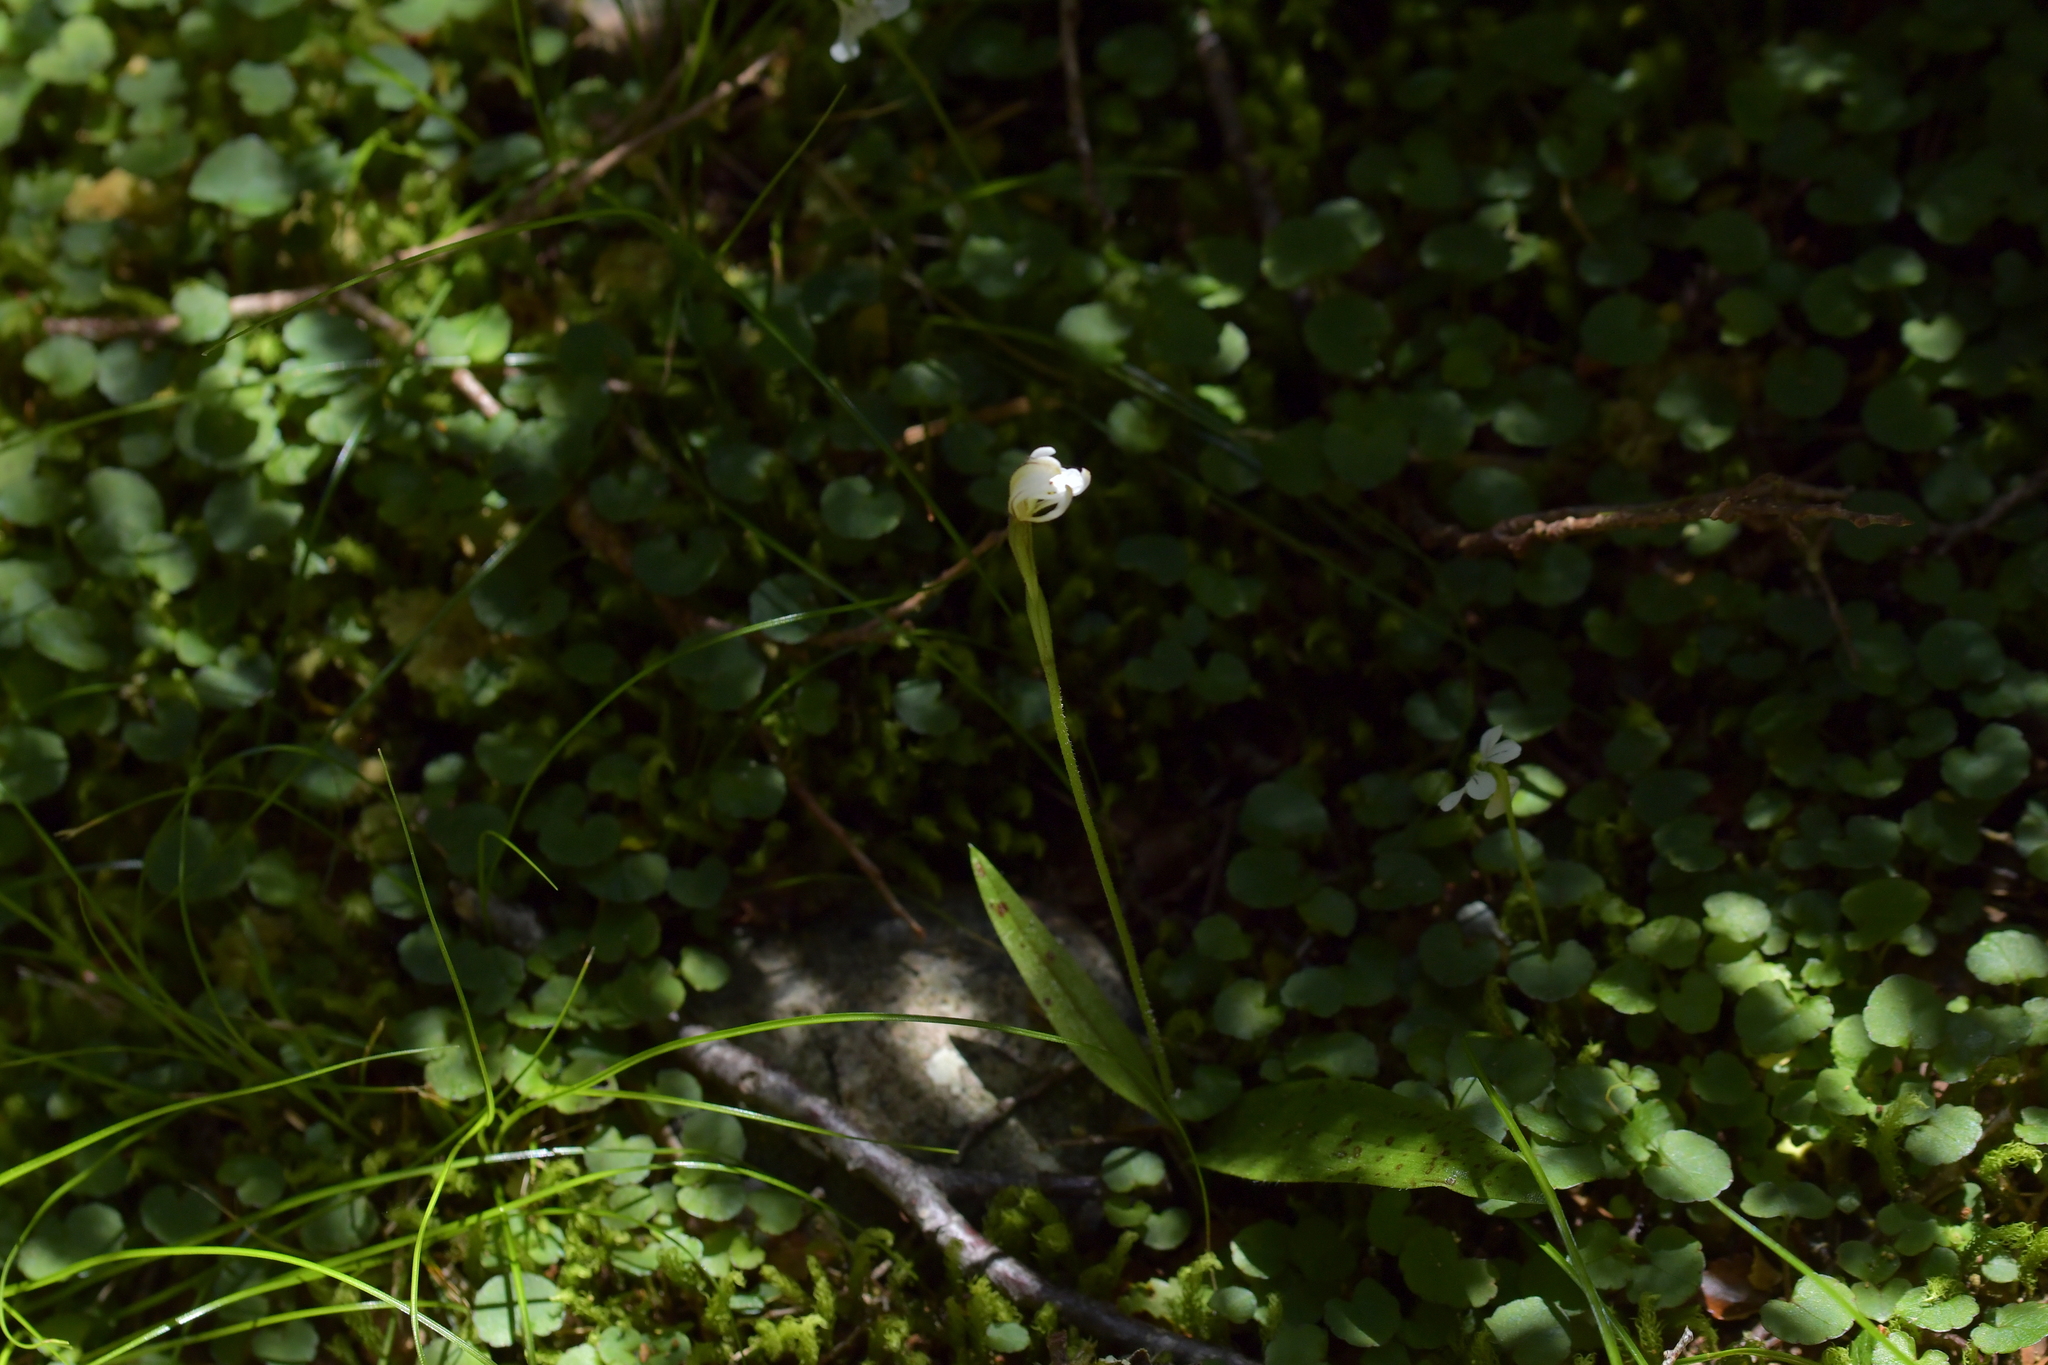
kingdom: Plantae
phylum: Tracheophyta
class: Liliopsida
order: Asparagales
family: Orchidaceae
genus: Aporostylis
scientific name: Aporostylis bifolia
